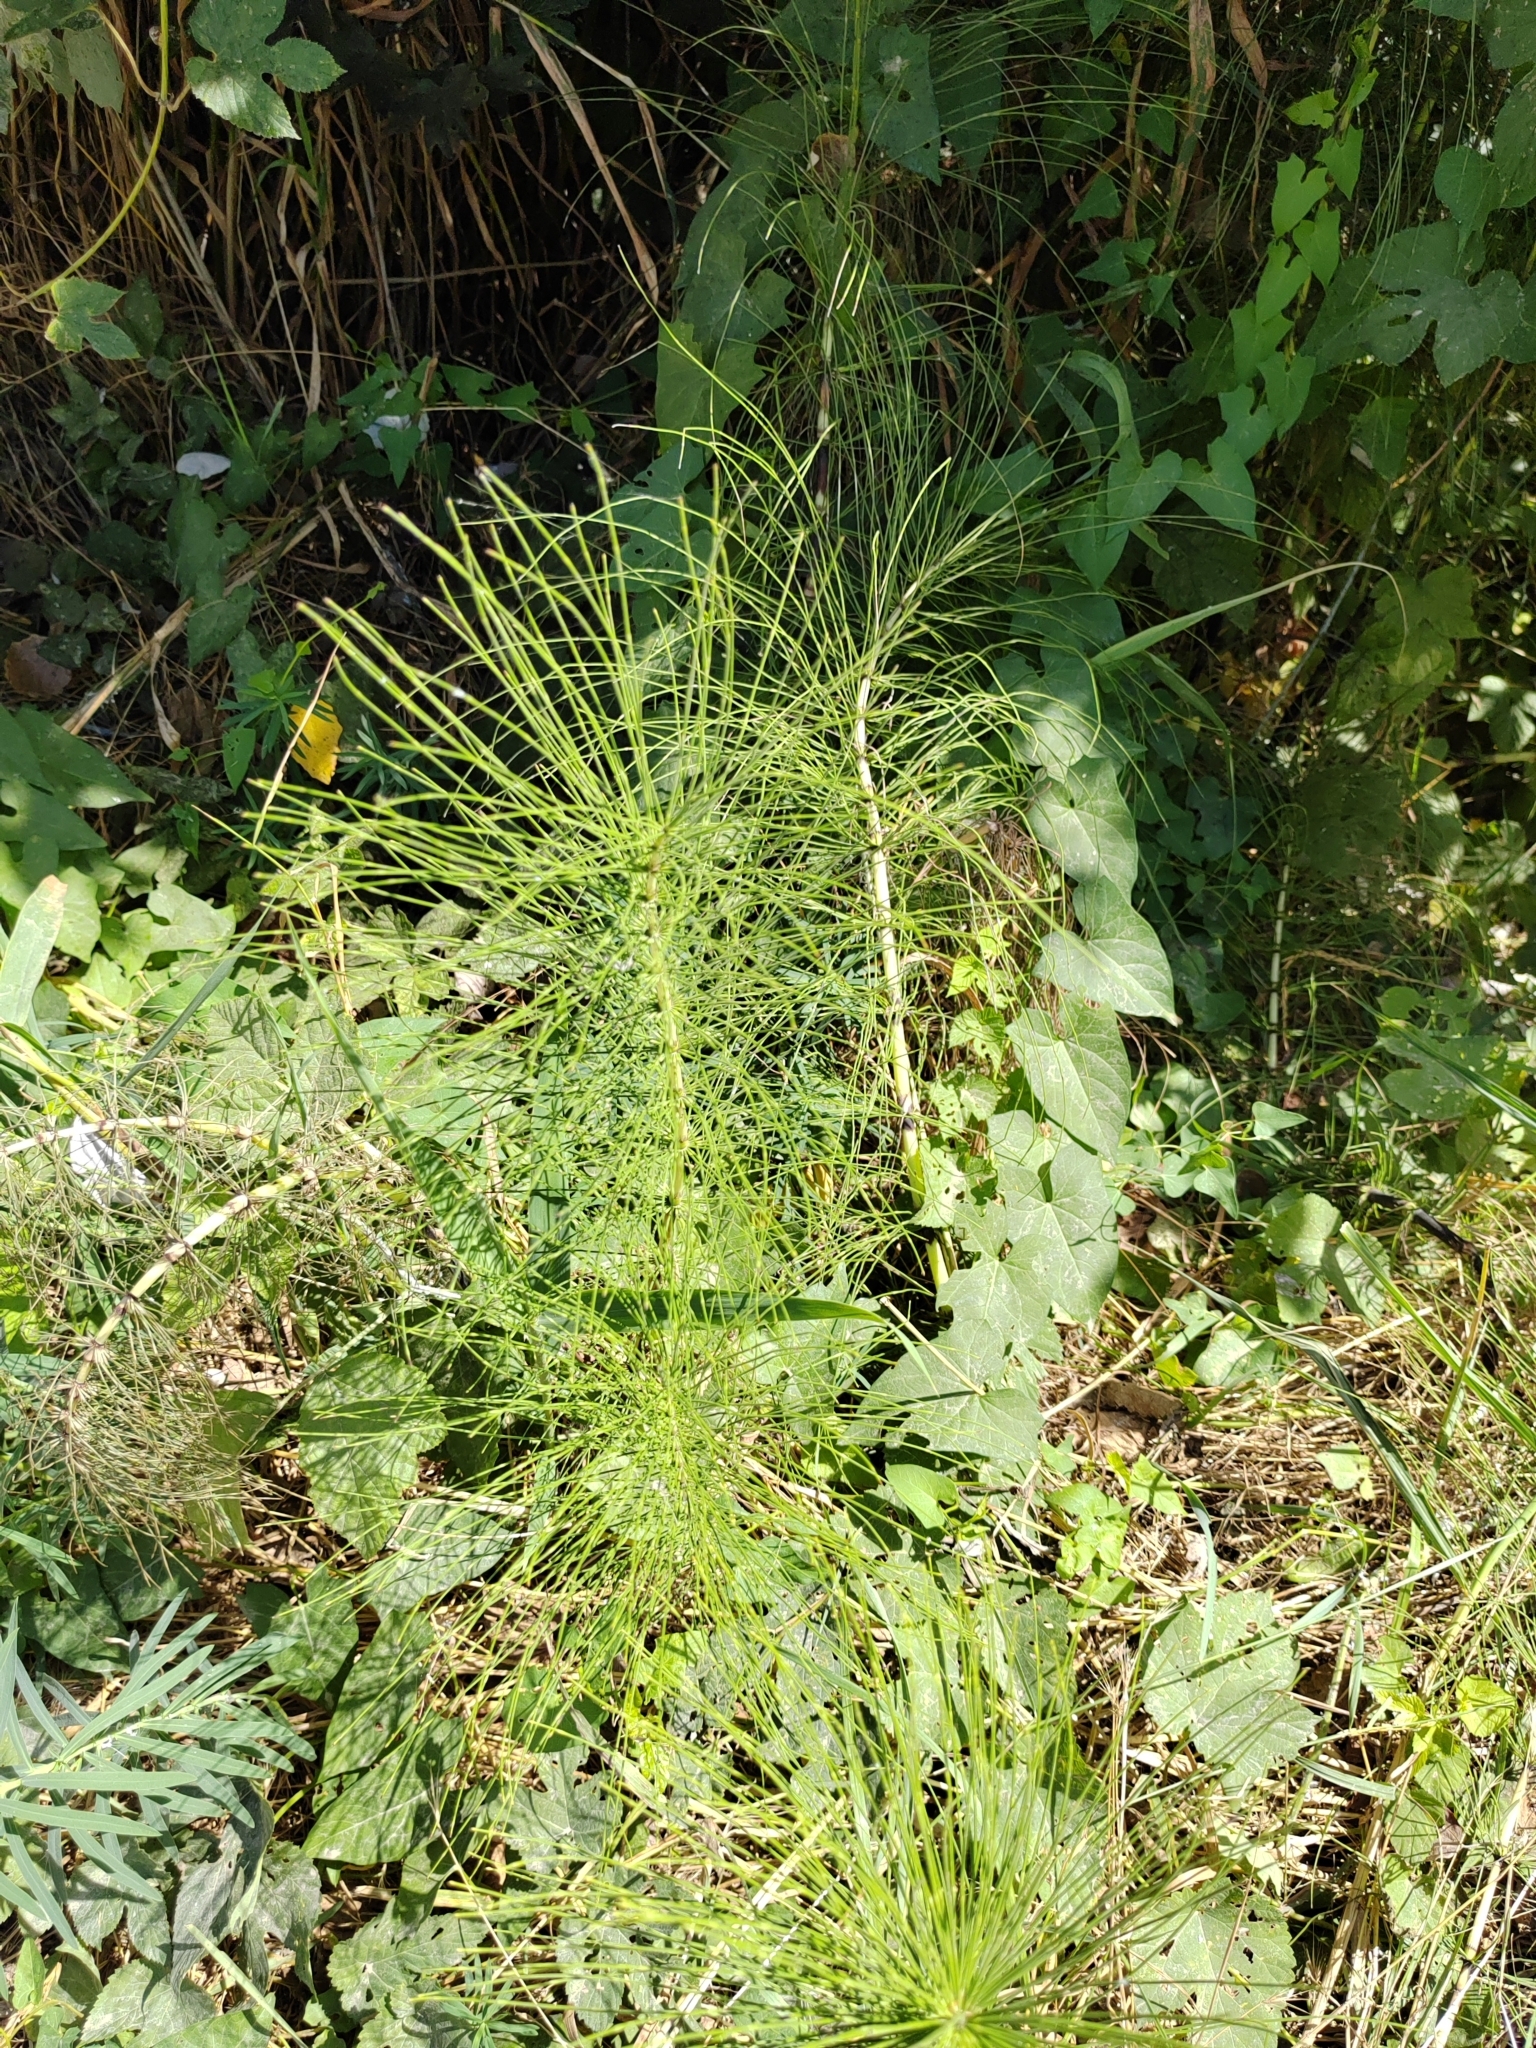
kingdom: Plantae
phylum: Tracheophyta
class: Polypodiopsida
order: Equisetales
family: Equisetaceae
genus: Equisetum
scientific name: Equisetum telmateia
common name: Great horsetail
